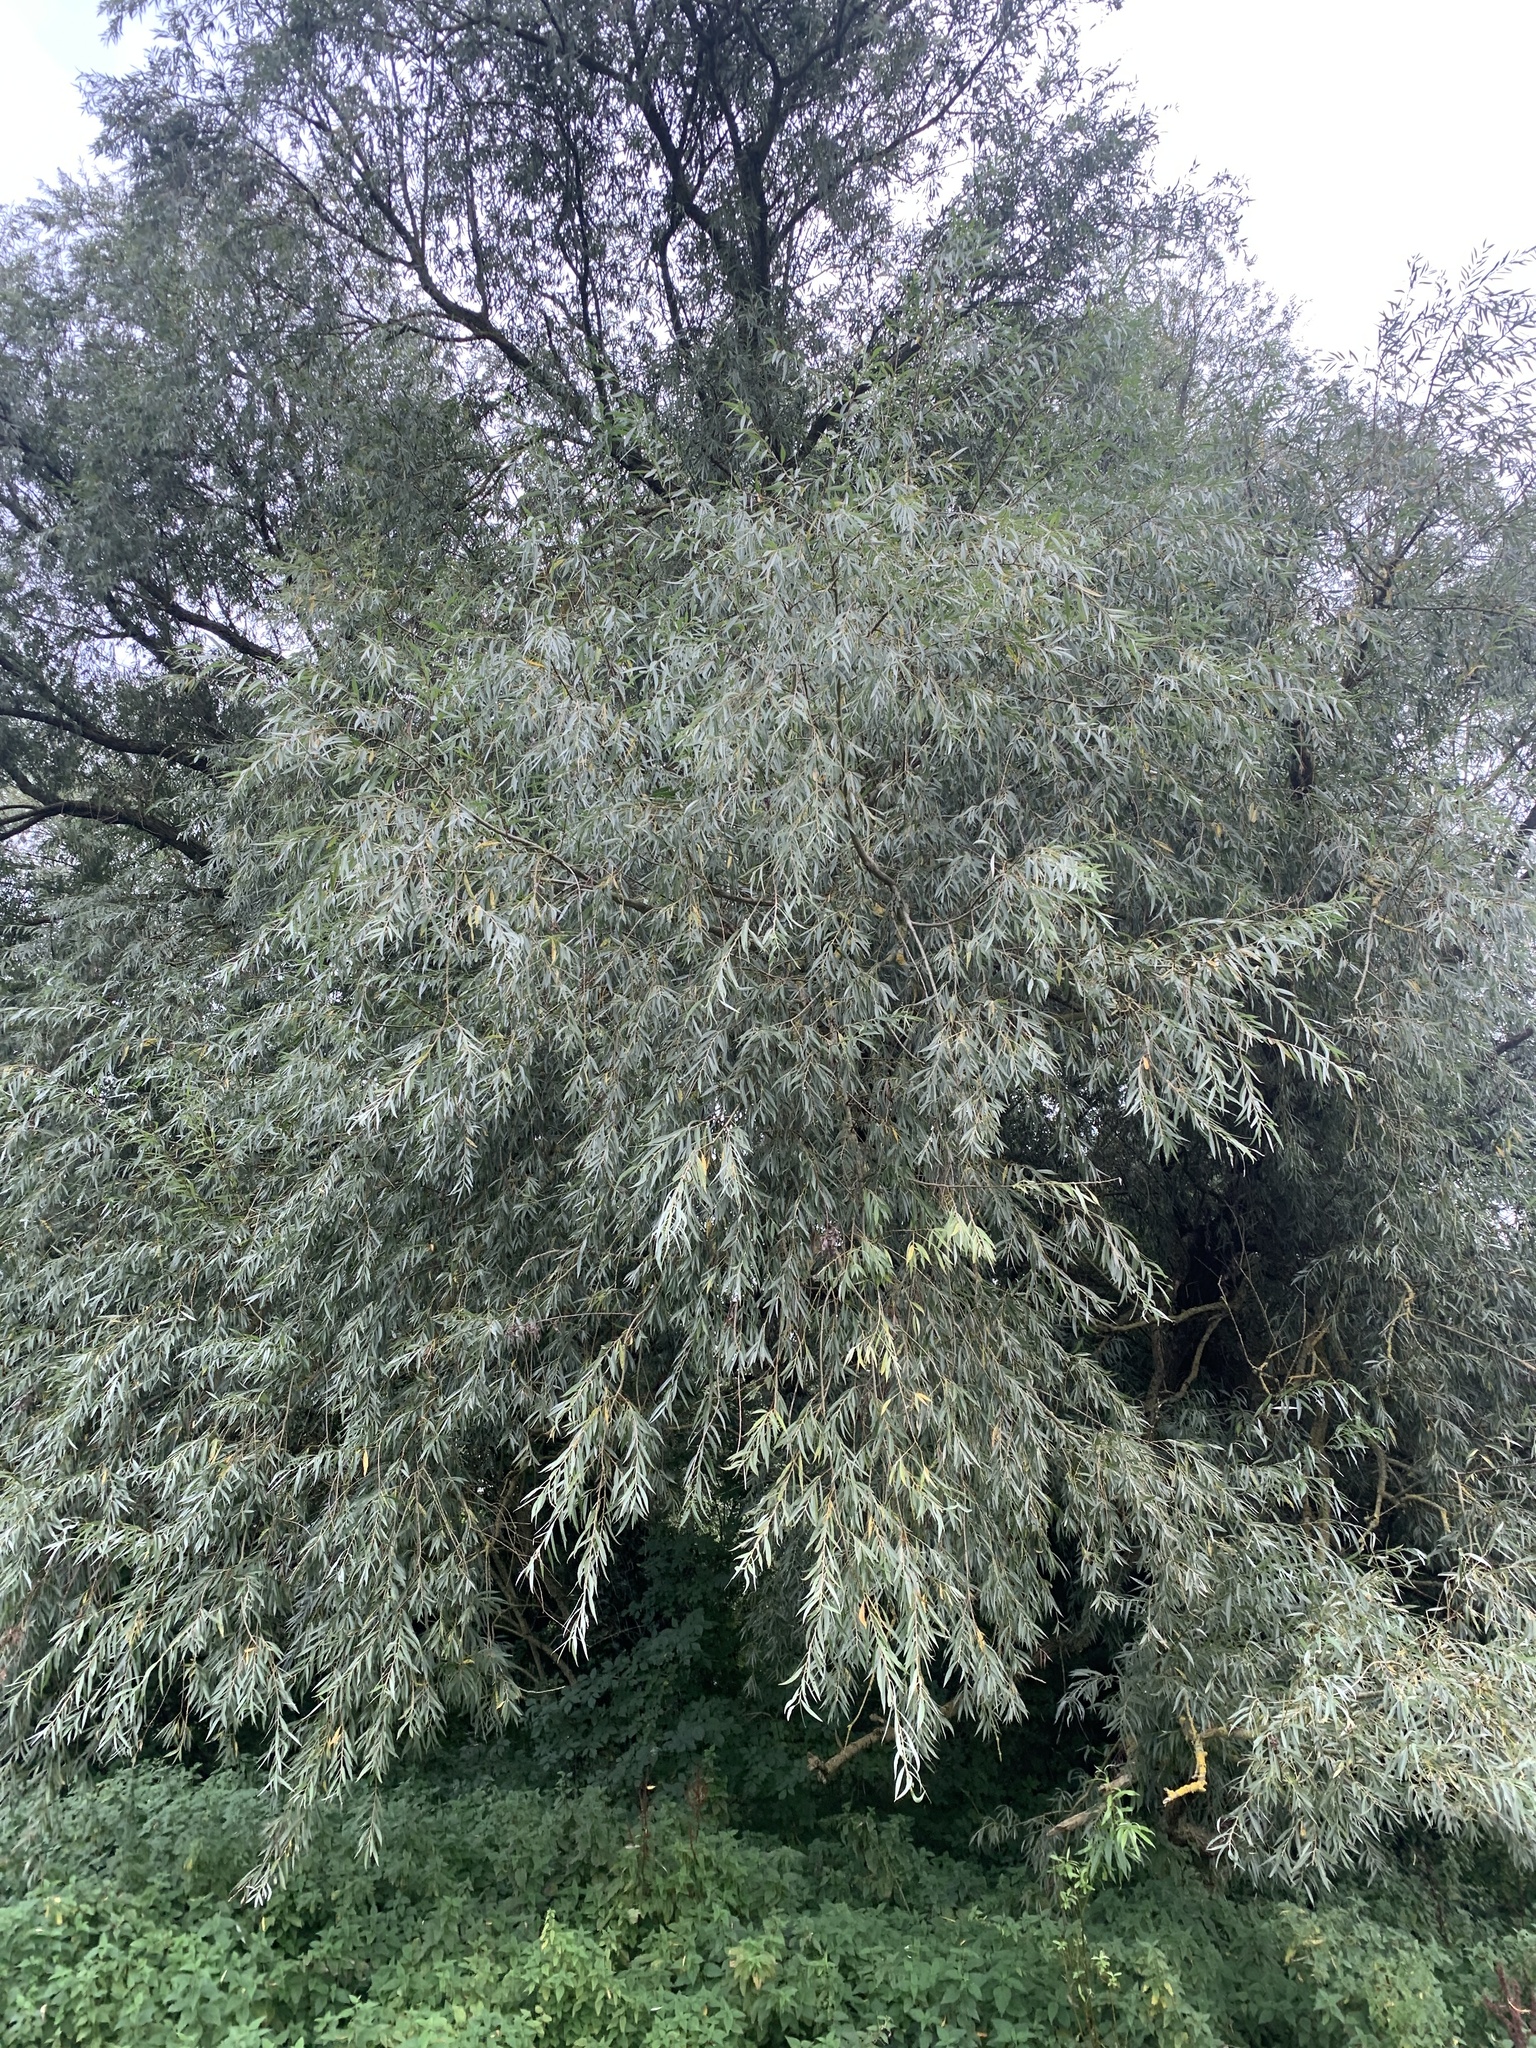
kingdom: Plantae
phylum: Tracheophyta
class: Magnoliopsida
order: Malpighiales
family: Salicaceae
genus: Salix
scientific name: Salix alba
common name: White willow
